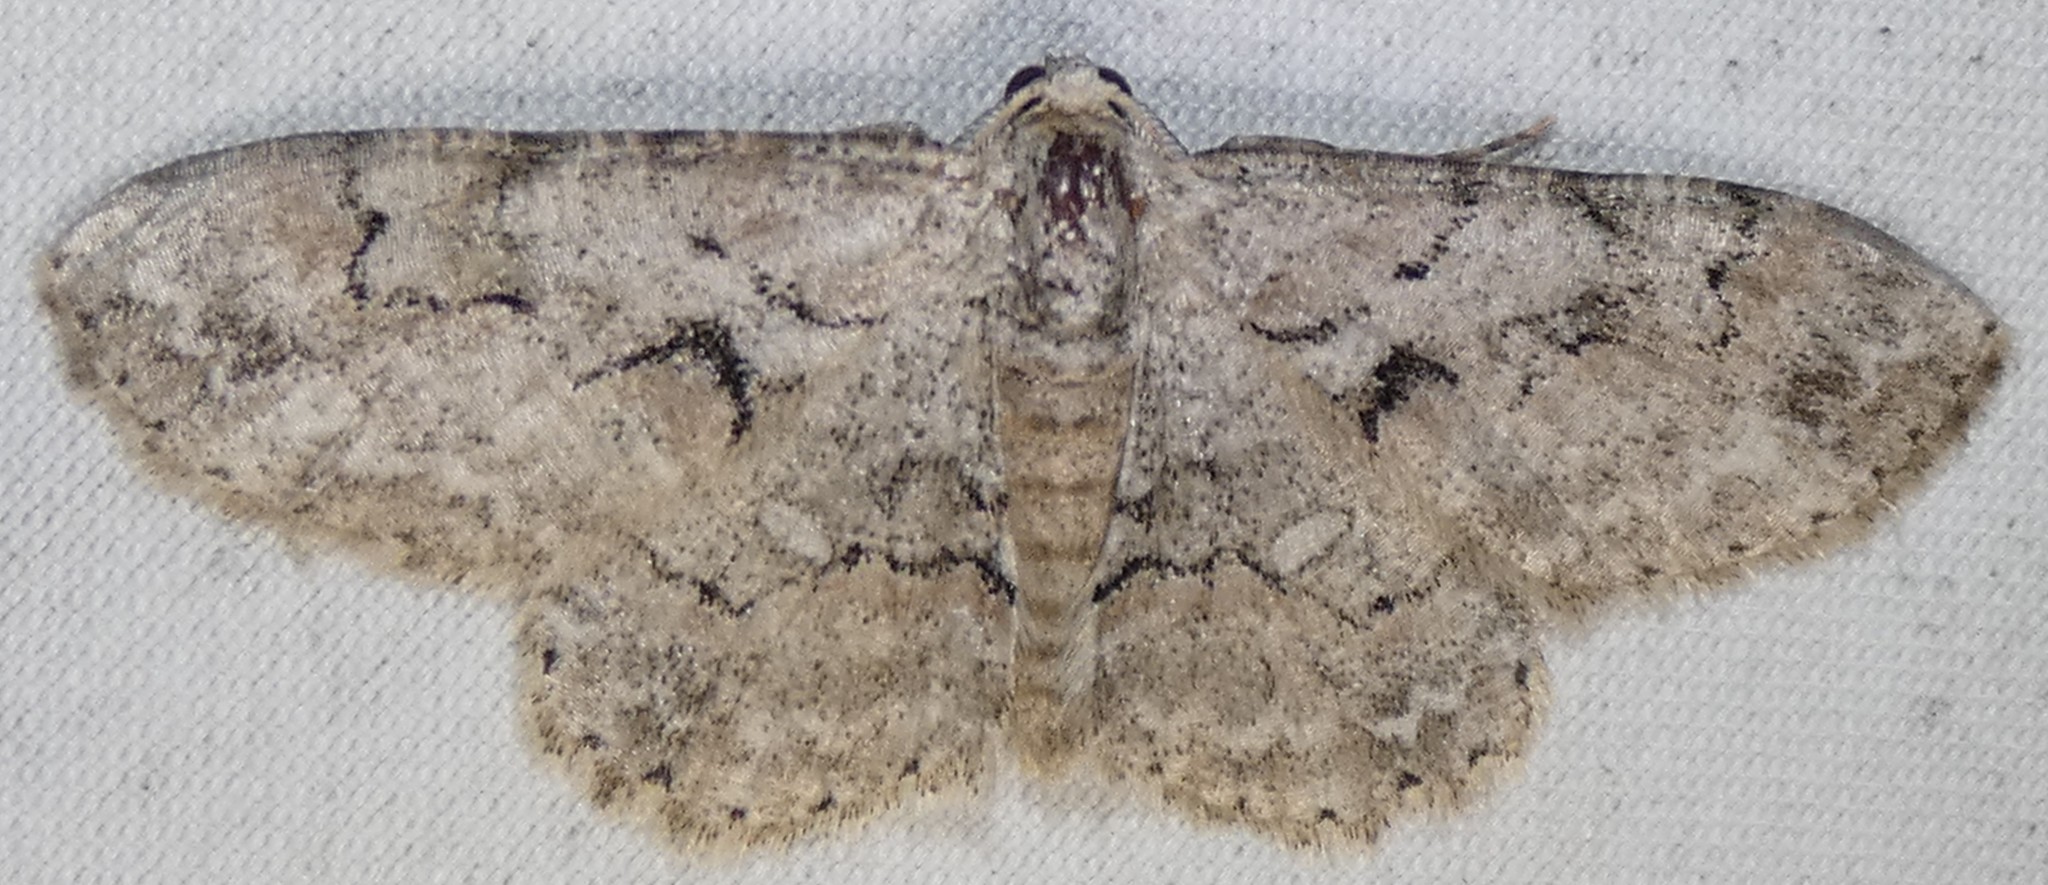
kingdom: Animalia
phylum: Arthropoda
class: Insecta
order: Lepidoptera
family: Geometridae
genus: Iridopsis
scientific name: Iridopsis defectaria
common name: Brown-shaded gray
